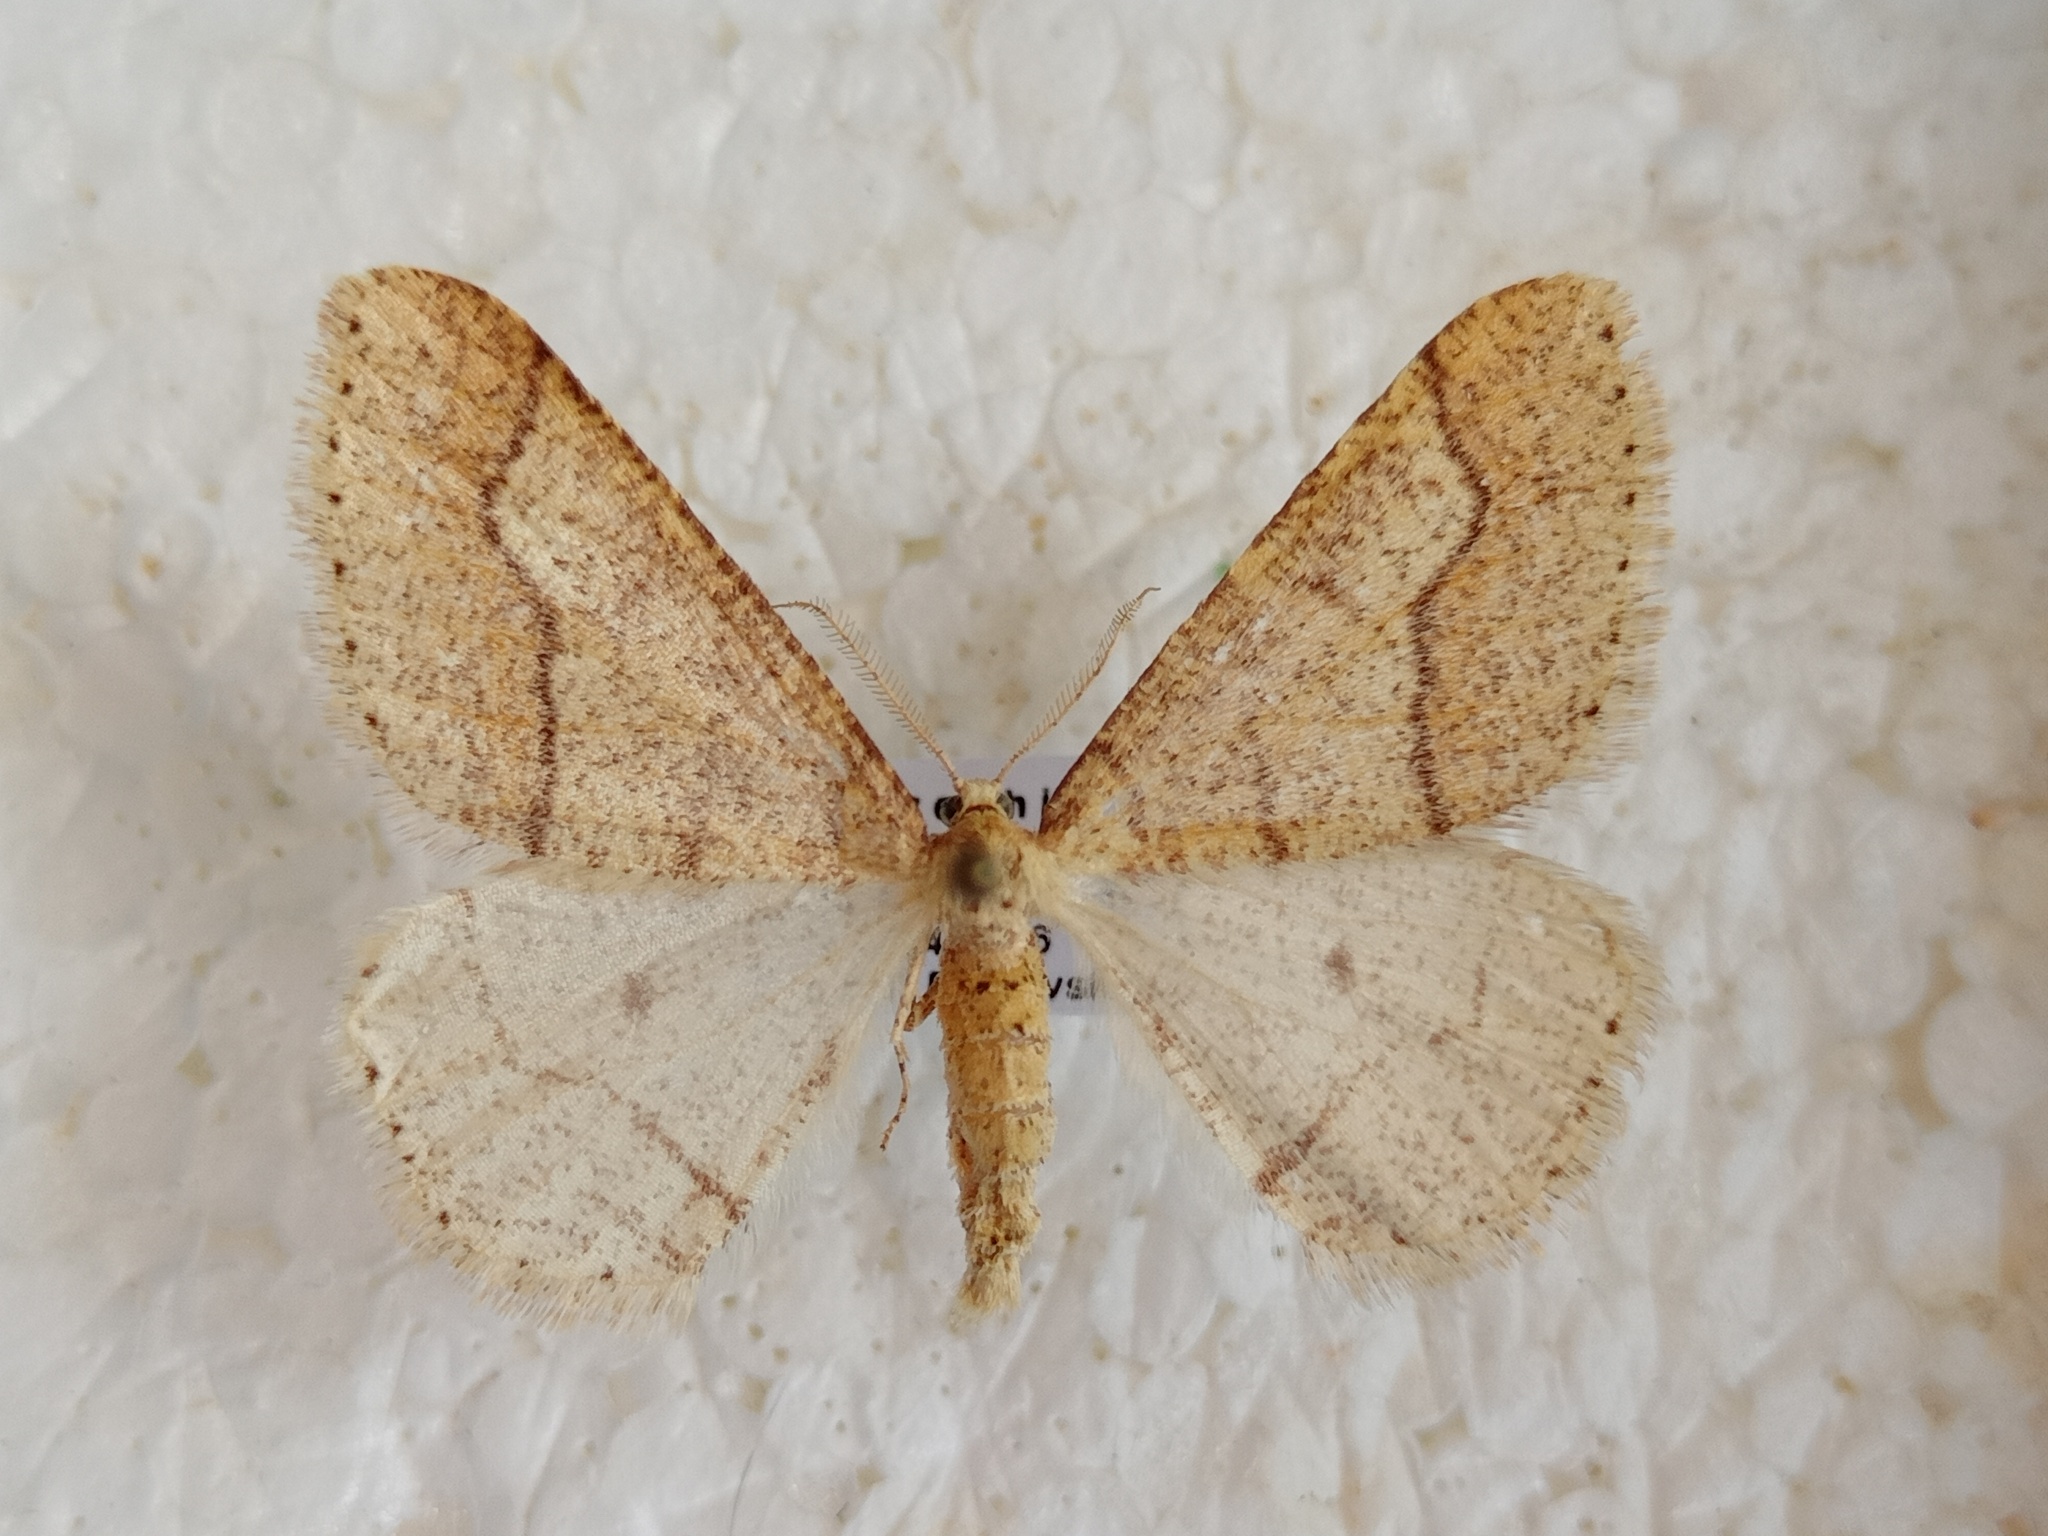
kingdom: Animalia
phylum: Arthropoda
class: Insecta
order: Lepidoptera
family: Geometridae
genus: Agriopis
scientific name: Agriopis marginaria
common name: Dotted border
